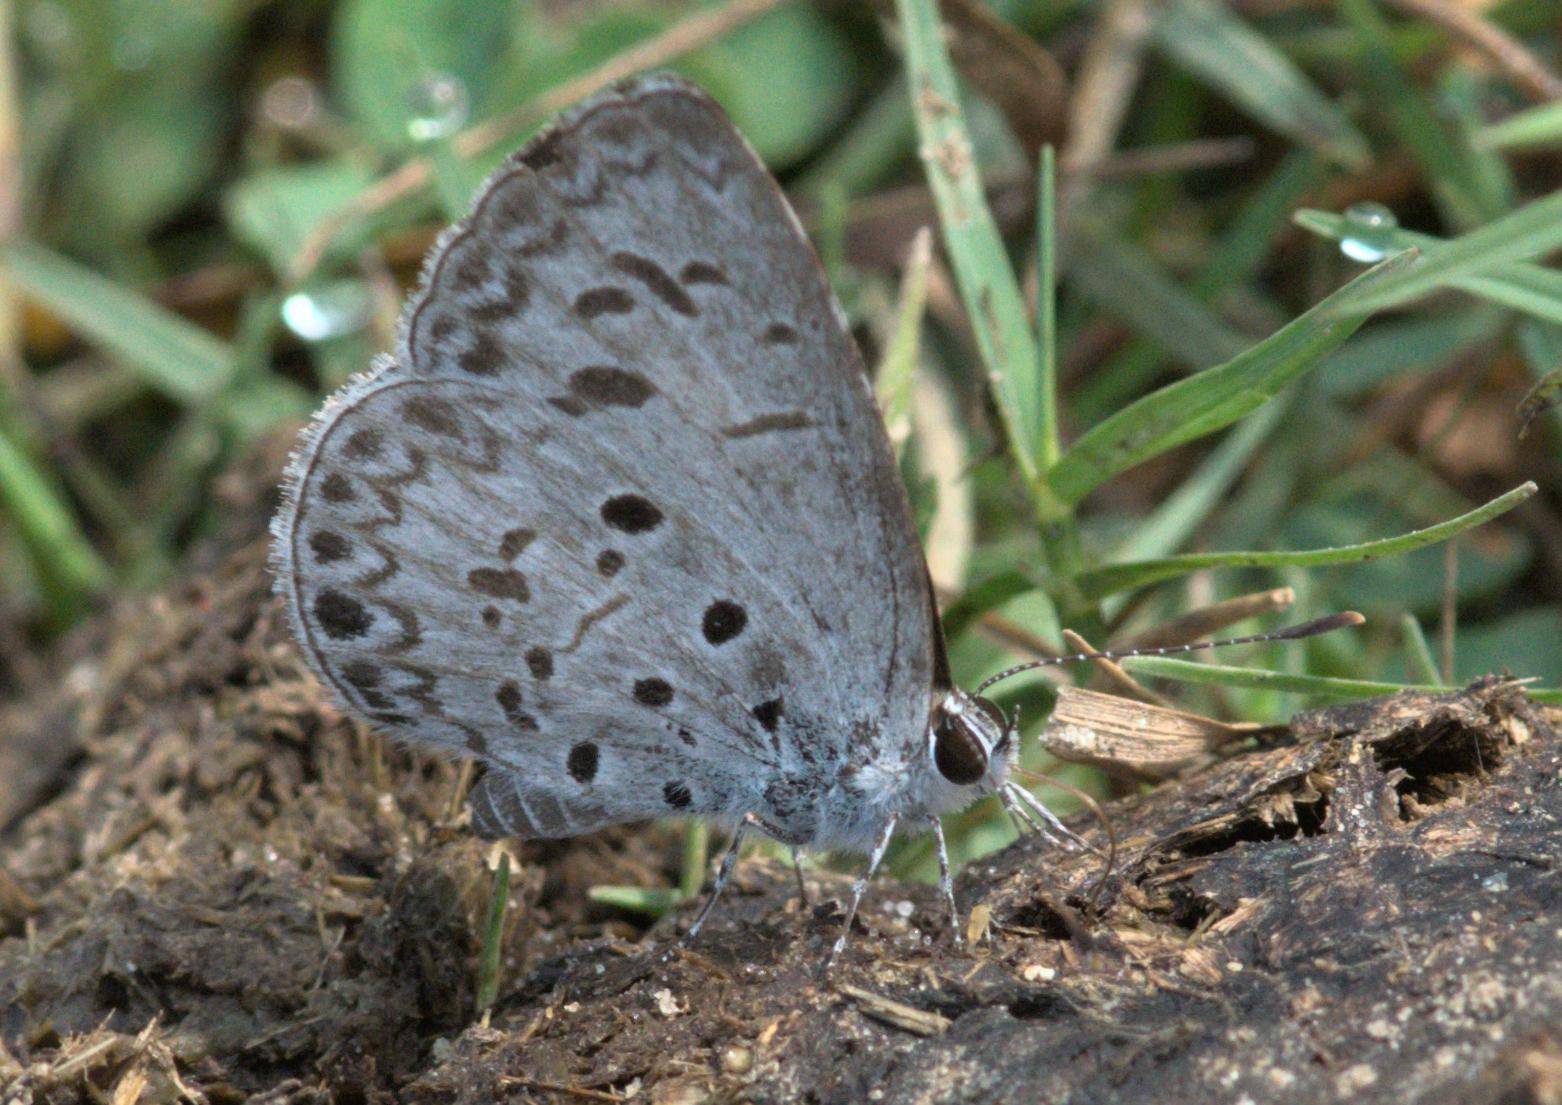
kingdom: Animalia
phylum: Arthropoda
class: Insecta
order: Lepidoptera
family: Lycaenidae
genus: Acytolepis
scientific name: Acytolepis puspa
